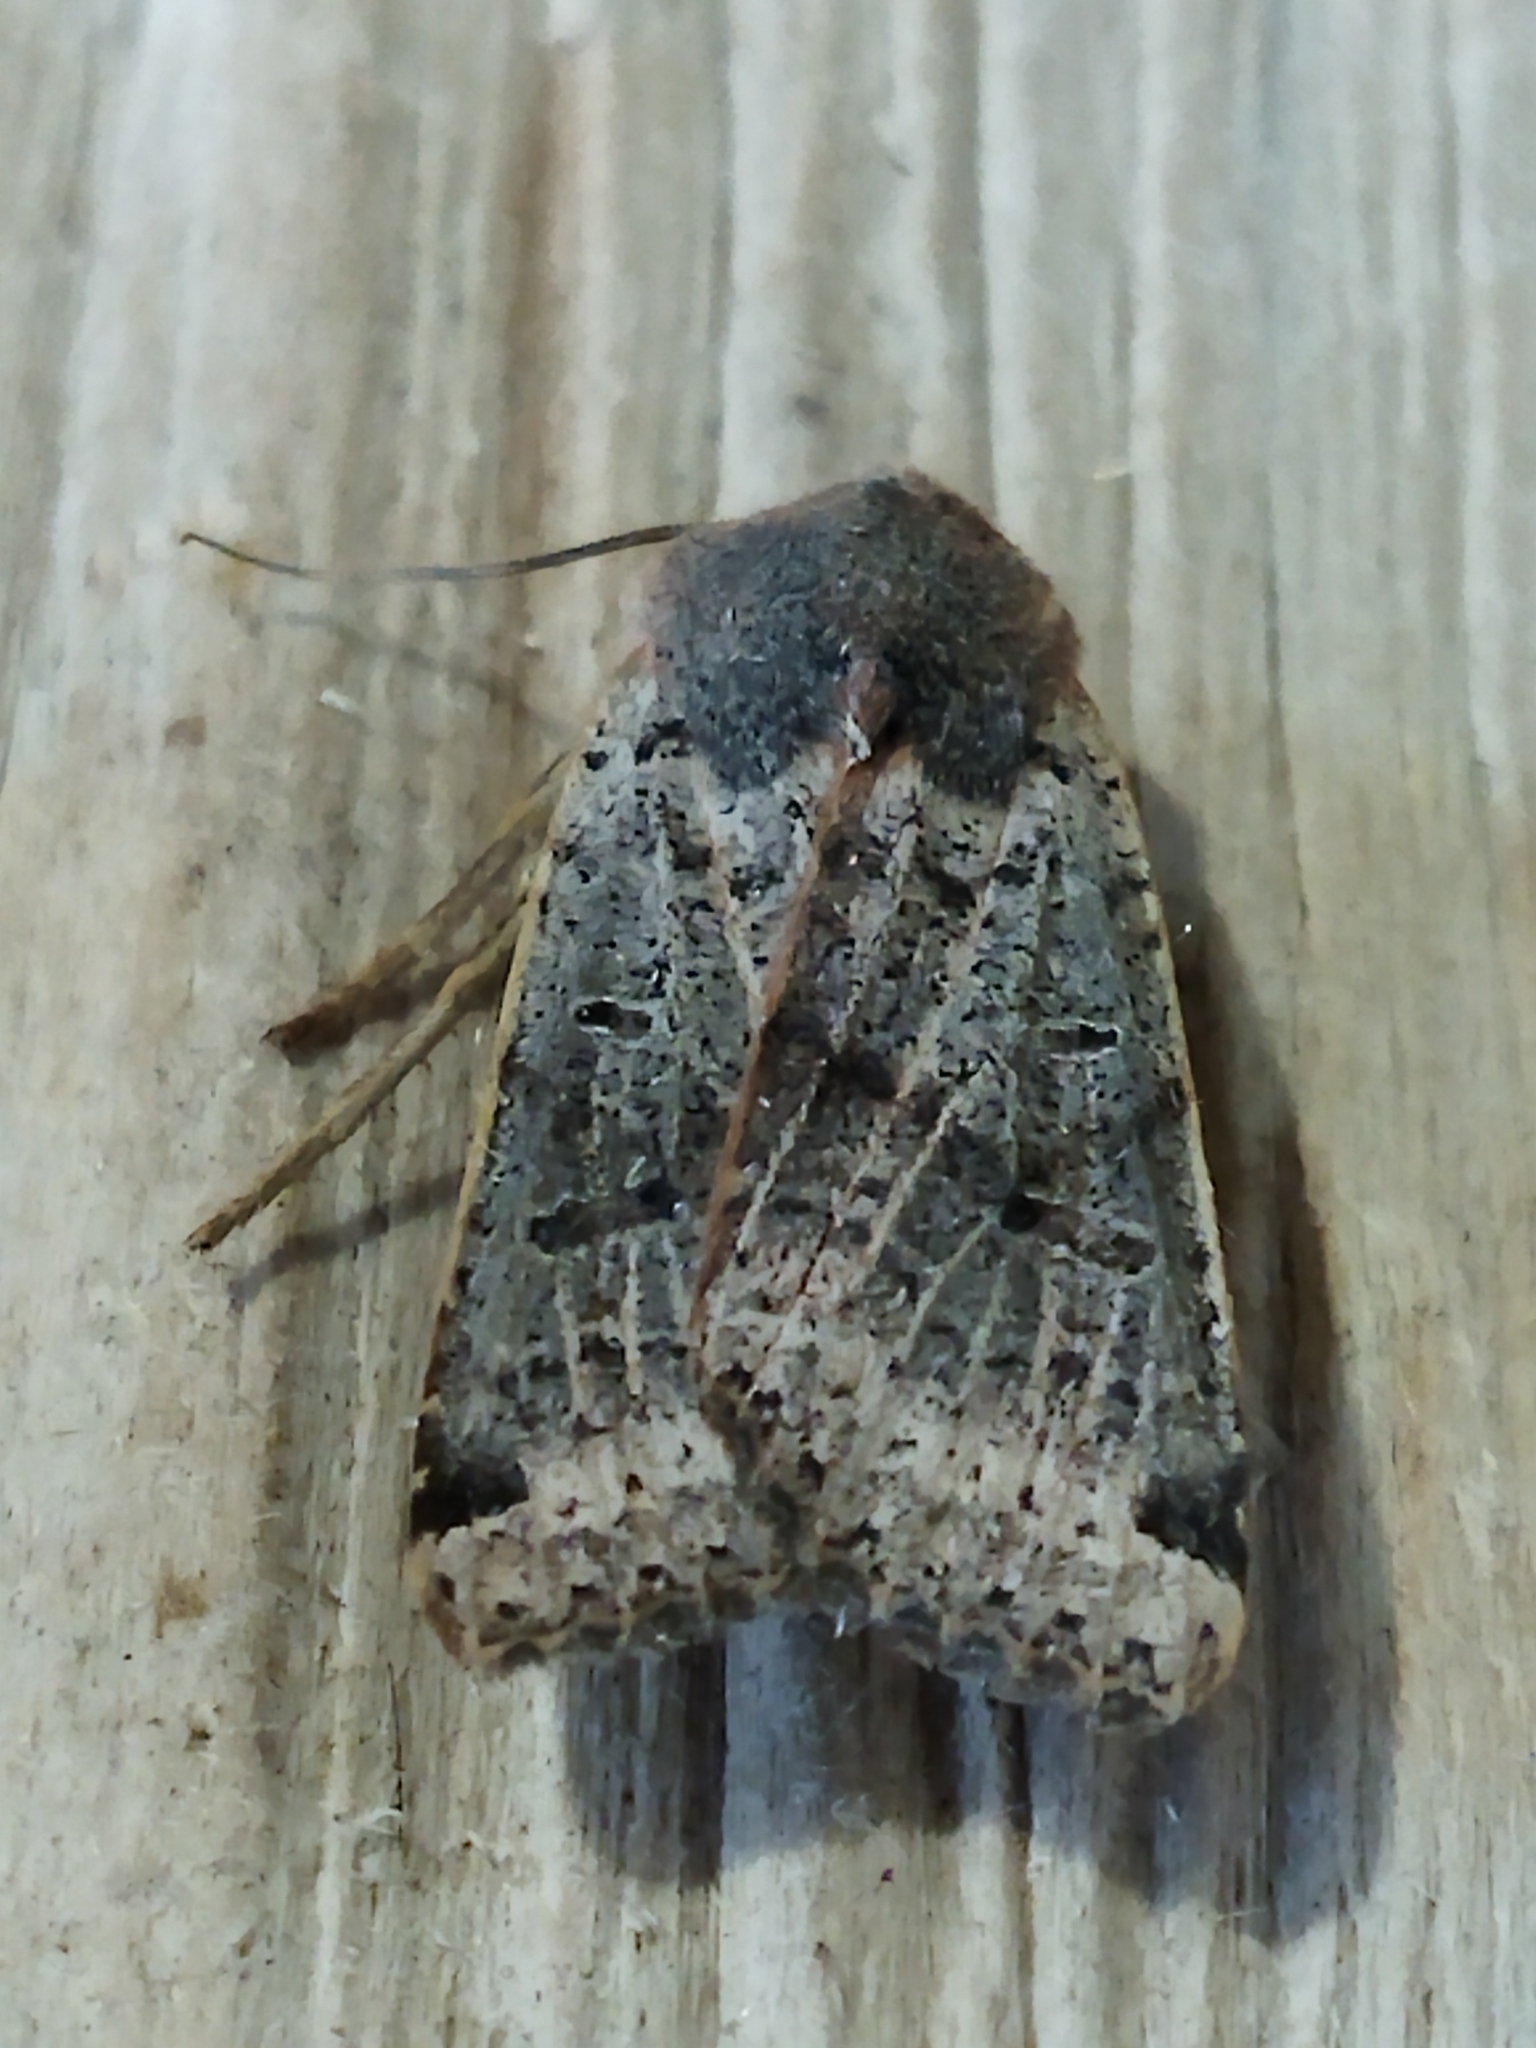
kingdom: Animalia
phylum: Arthropoda
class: Insecta
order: Lepidoptera
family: Noctuidae
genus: Agrochola
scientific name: Agrochola lychnidis
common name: Beaded chestnut
